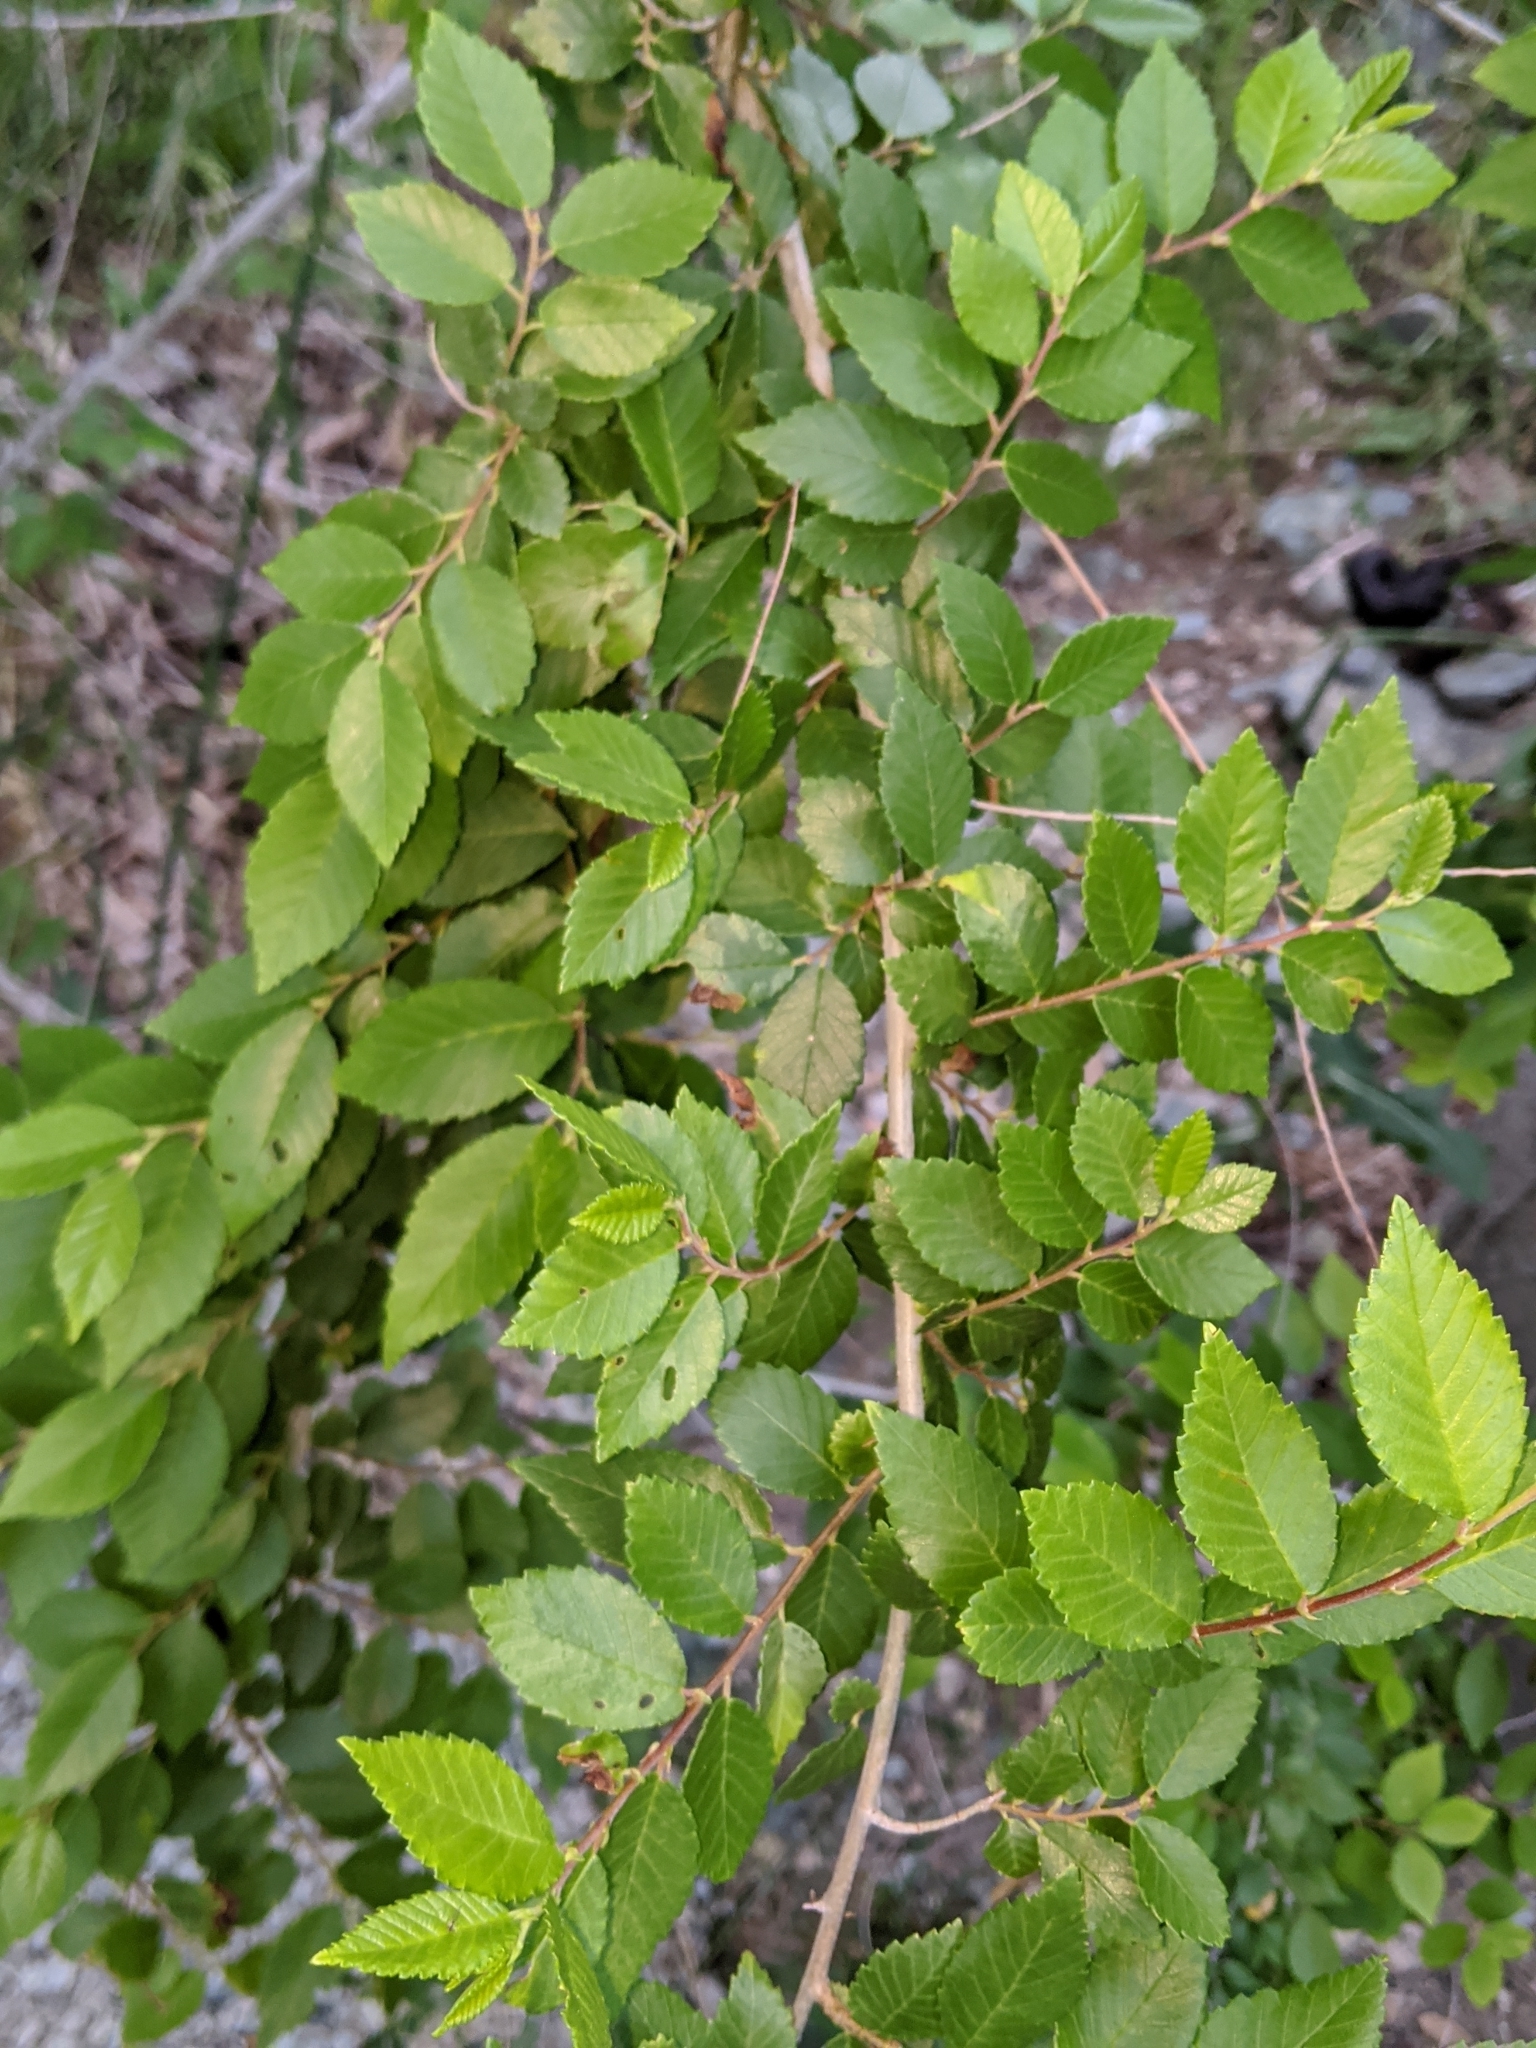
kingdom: Plantae
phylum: Tracheophyta
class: Magnoliopsida
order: Rosales
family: Ulmaceae
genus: Ulmus
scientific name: Ulmus pumila
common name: Siberian elm
